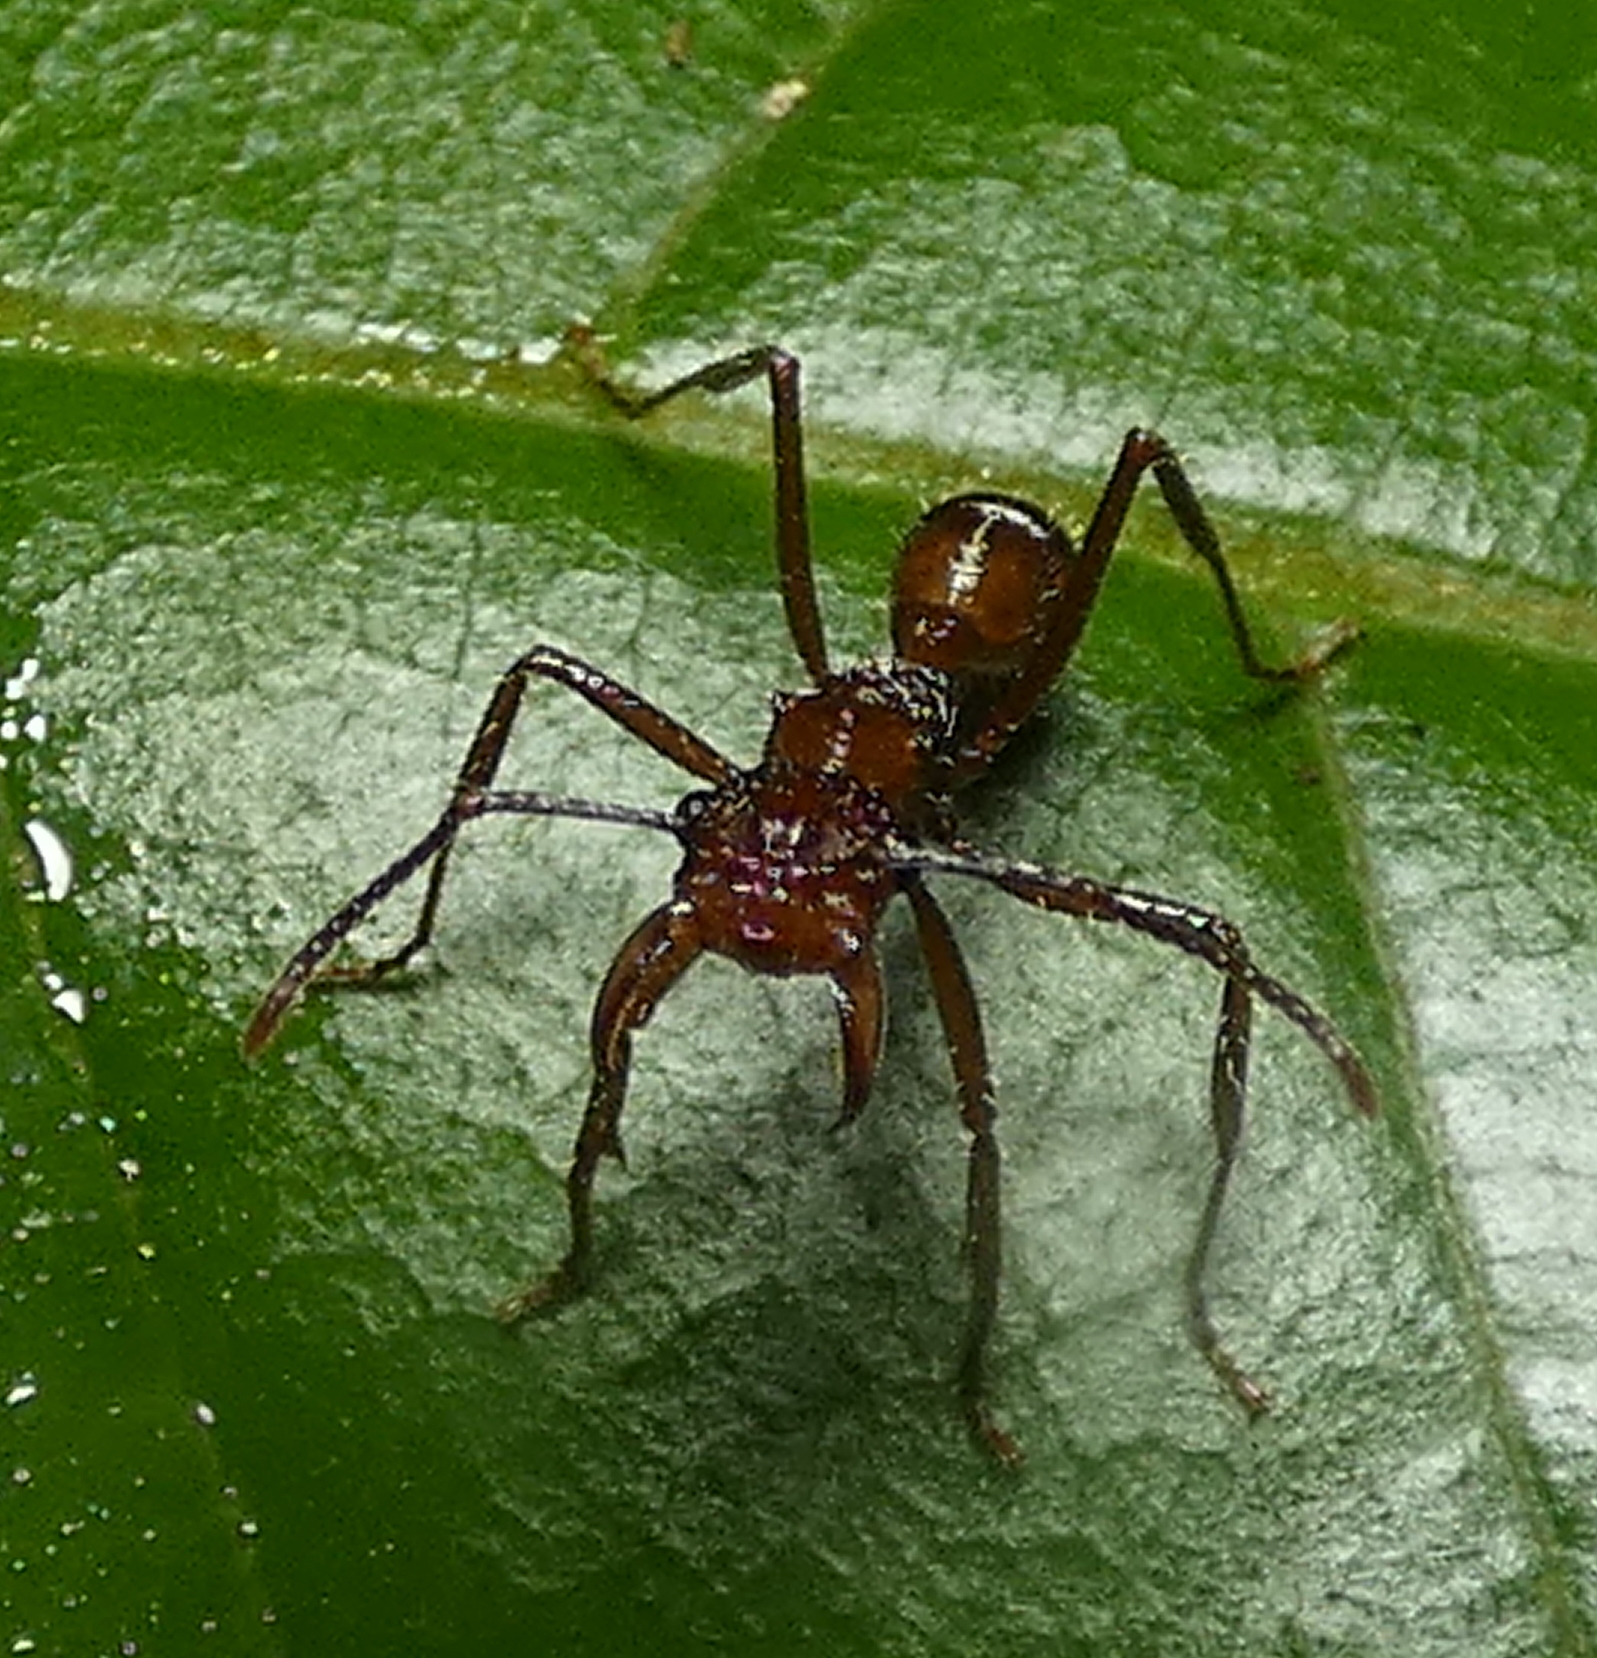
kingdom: Animalia
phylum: Arthropoda
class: Insecta
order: Hymenoptera
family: Formicidae
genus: Ectatomma
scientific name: Ectatomma tuberculatum
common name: Ant
